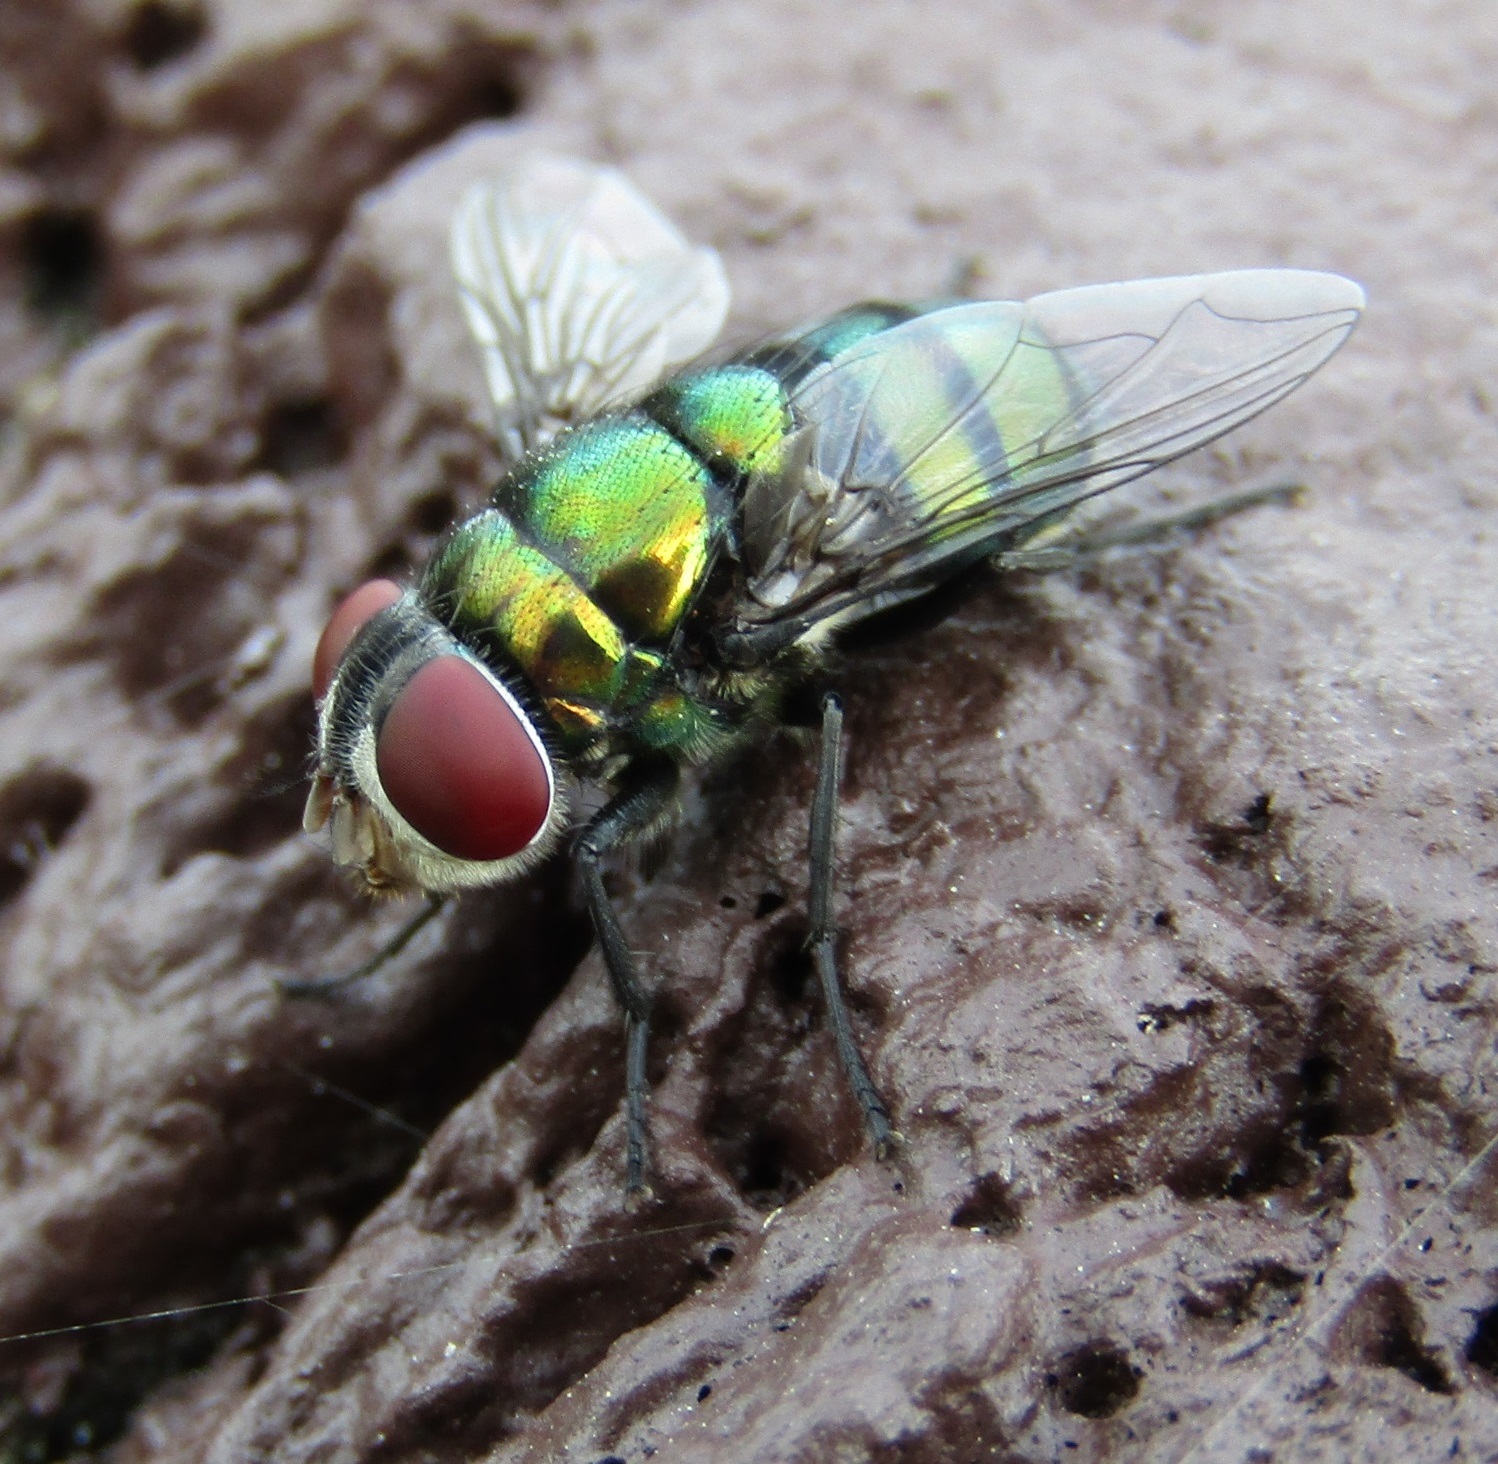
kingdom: Animalia
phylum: Arthropoda
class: Insecta
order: Diptera
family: Calliphoridae
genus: Chrysomya
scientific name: Chrysomya rufifacies
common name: Blow fly
